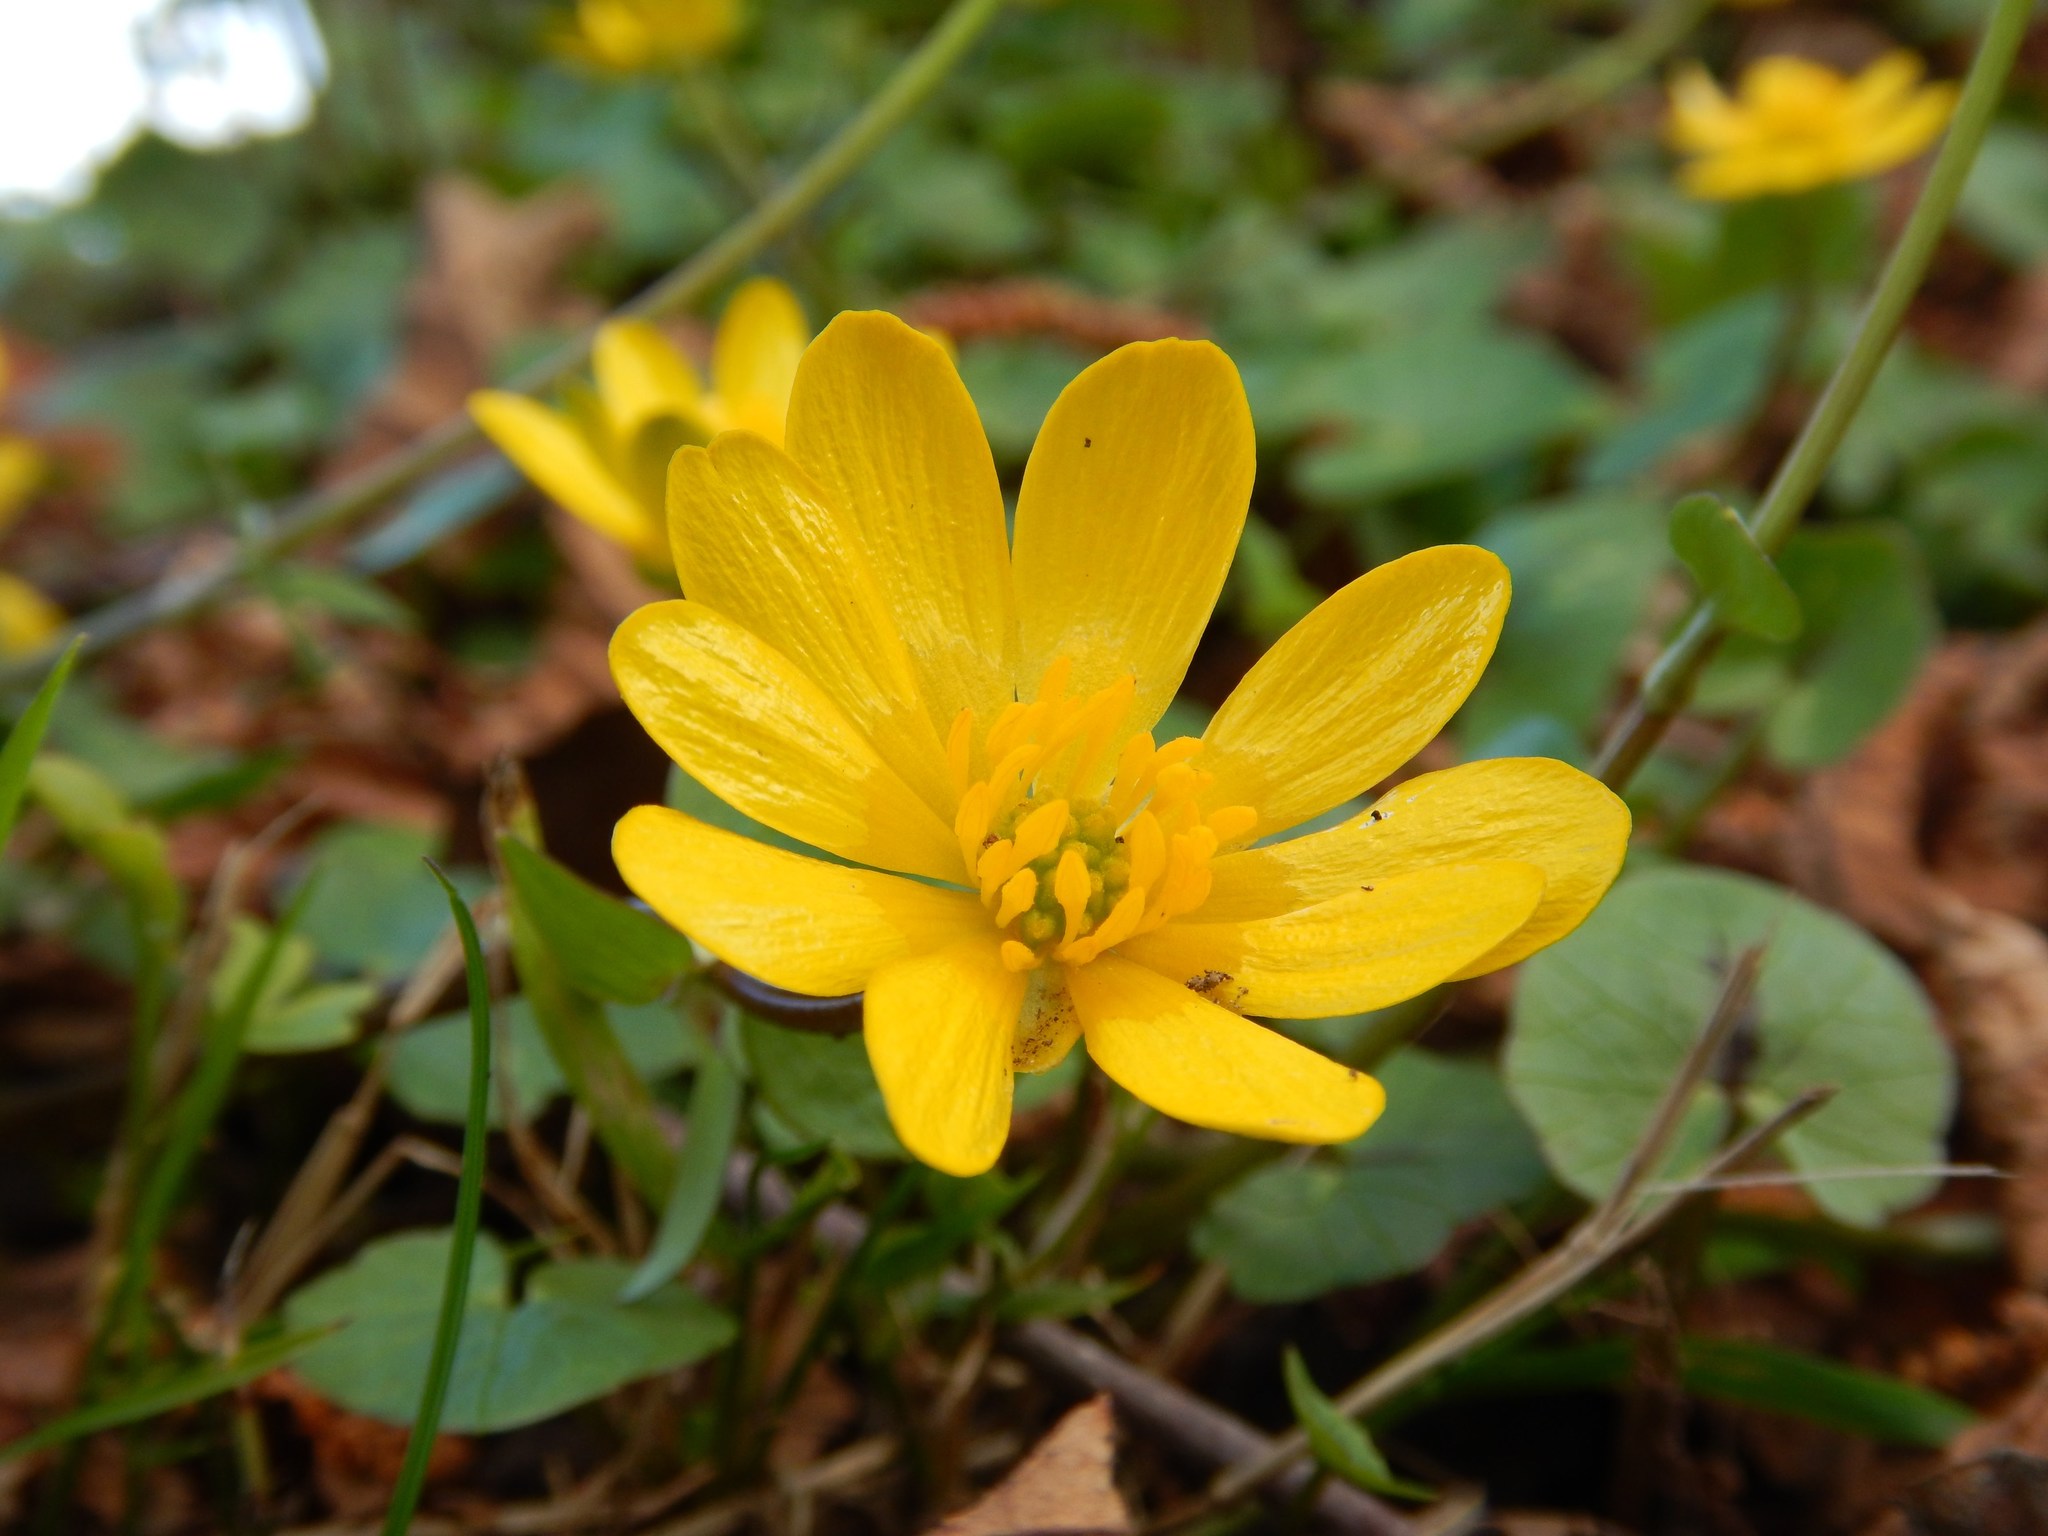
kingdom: Plantae
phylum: Tracheophyta
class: Magnoliopsida
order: Ranunculales
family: Ranunculaceae
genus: Ficaria
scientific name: Ficaria verna
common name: Lesser celandine
